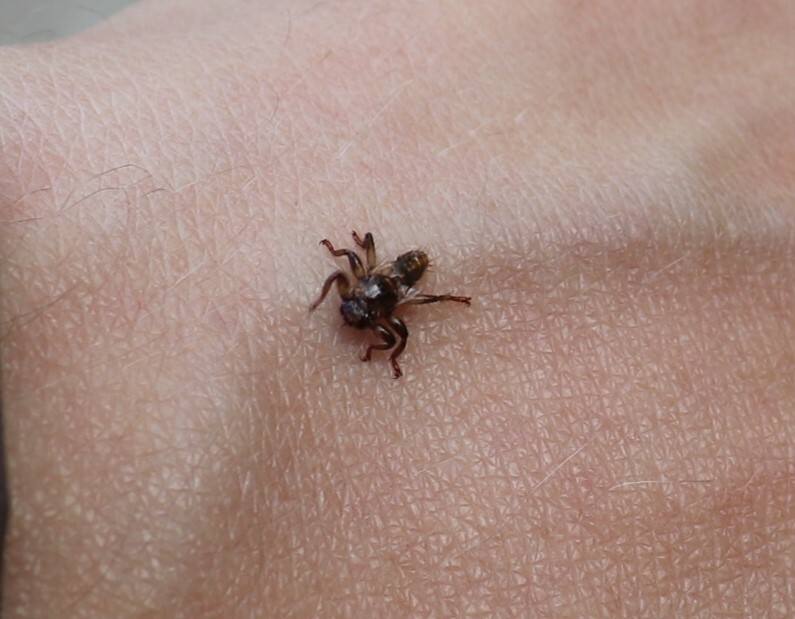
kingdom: Animalia
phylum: Arthropoda
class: Insecta
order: Diptera
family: Hippoboscidae
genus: Lipoptena
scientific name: Lipoptena cervi
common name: Deer ked
